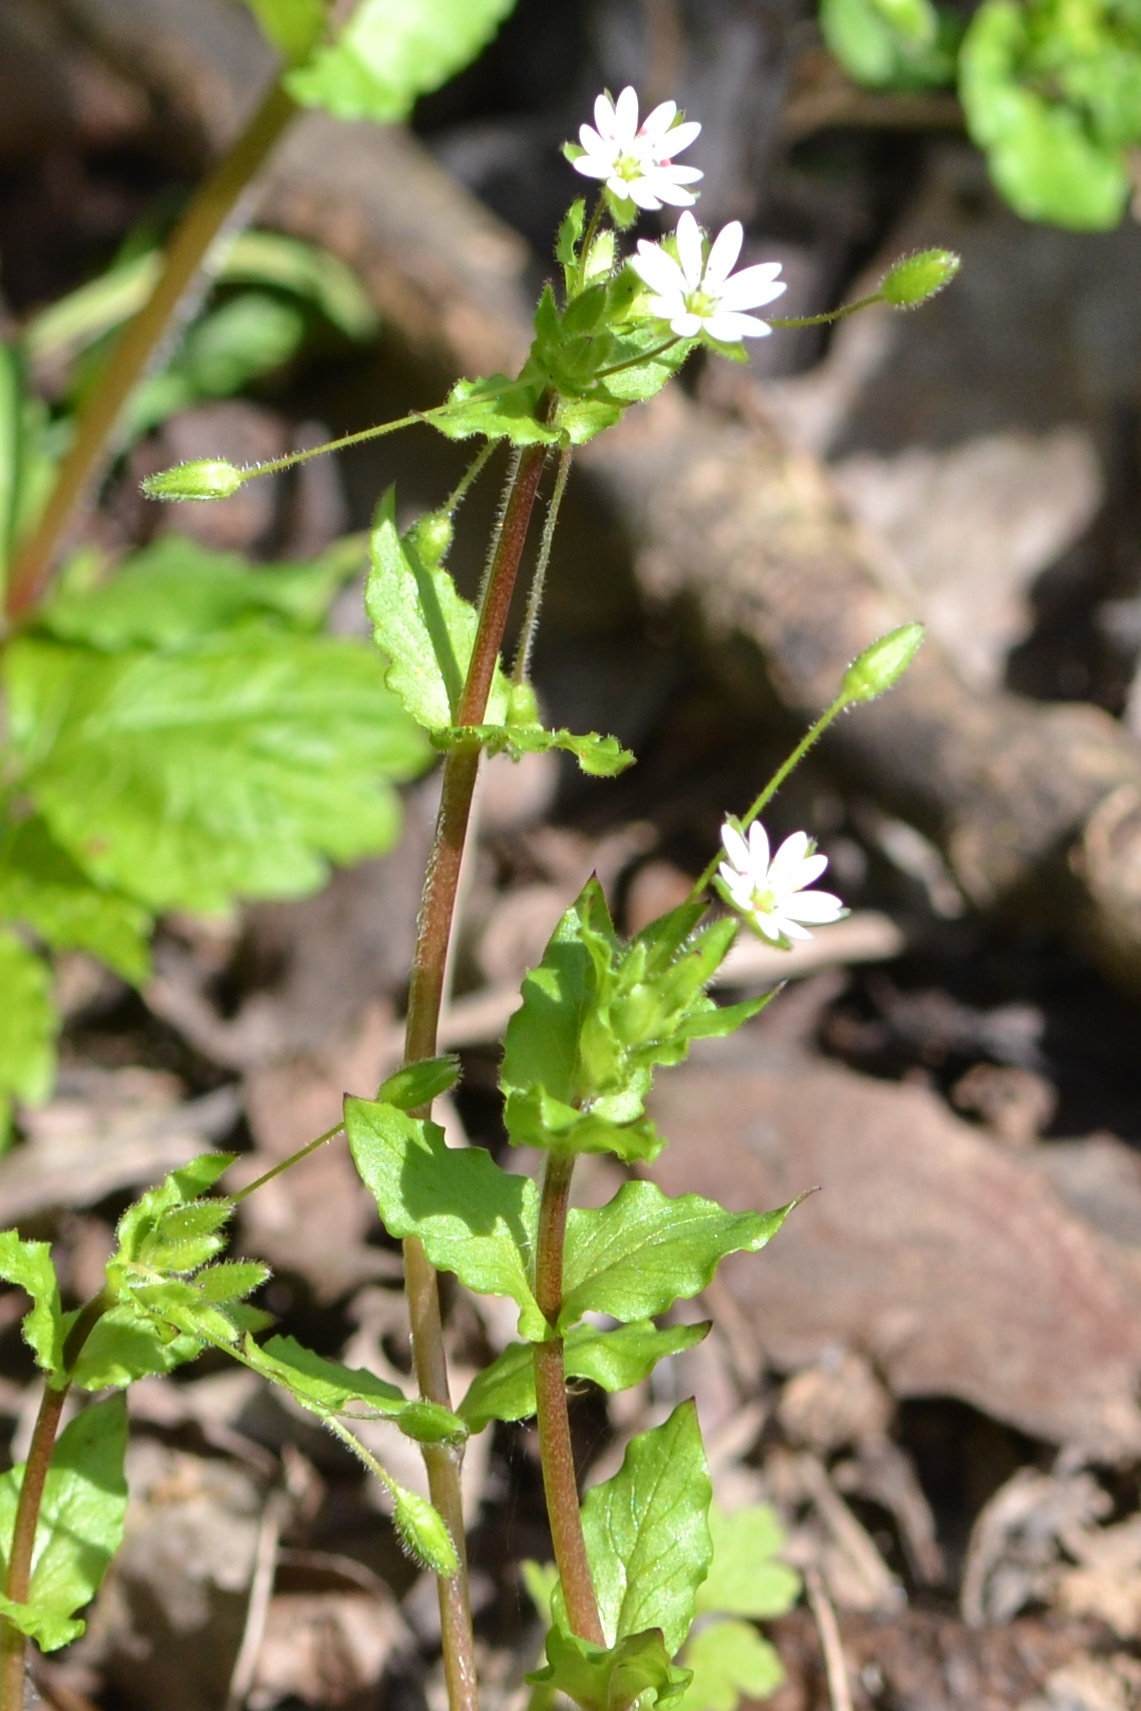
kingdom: Plantae
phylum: Tracheophyta
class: Magnoliopsida
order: Caryophyllales
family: Caryophyllaceae
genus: Stellaria
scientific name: Stellaria neglecta
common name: Greater chickweed
